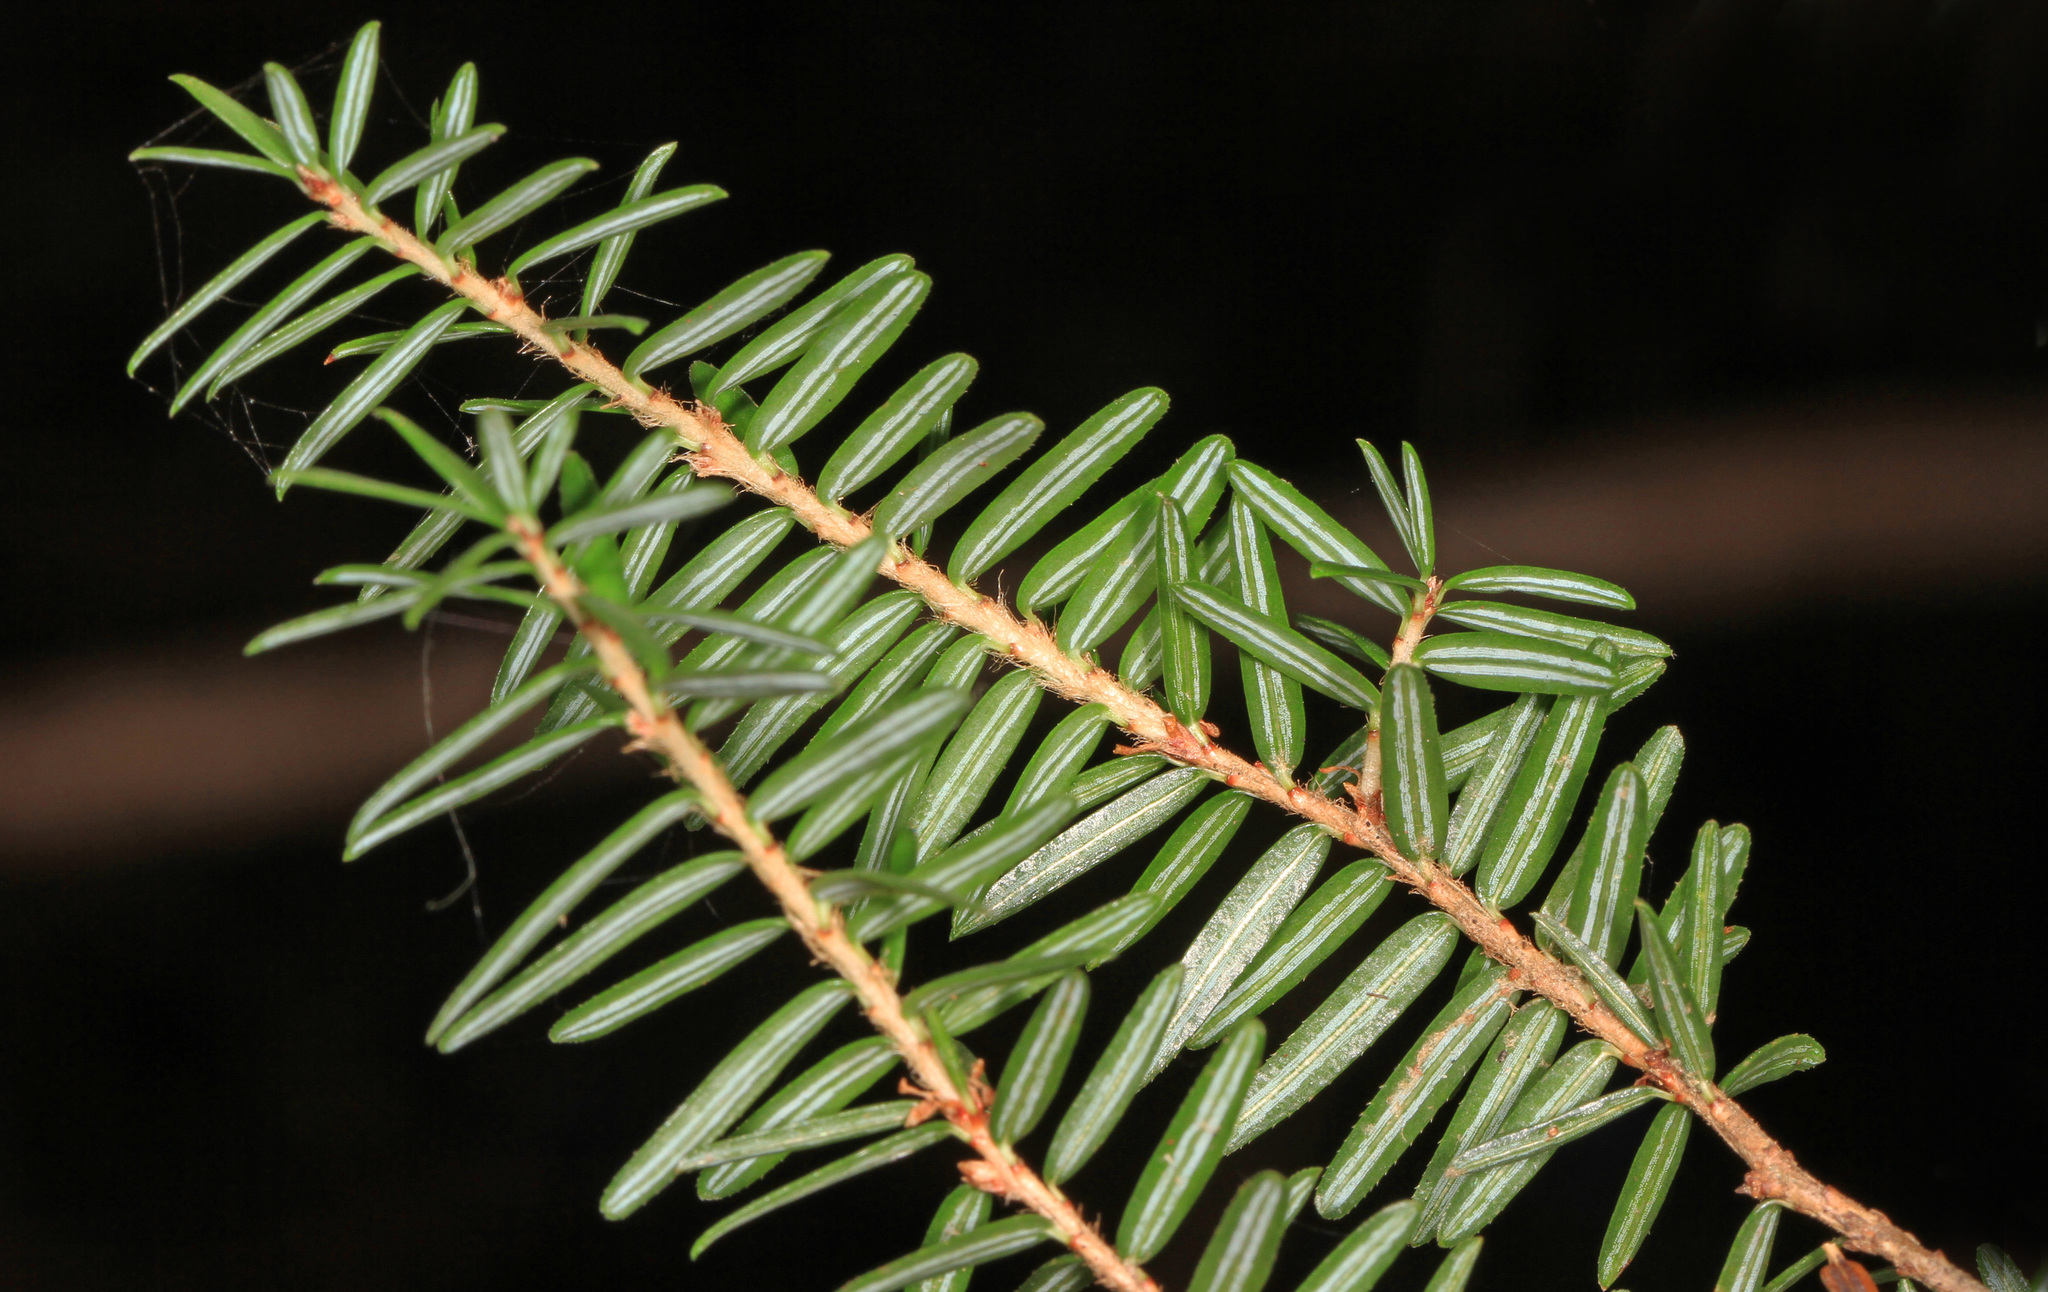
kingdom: Plantae
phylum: Tracheophyta
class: Pinopsida
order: Pinales
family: Pinaceae
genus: Tsuga
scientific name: Tsuga canadensis
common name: Eastern hemlock
